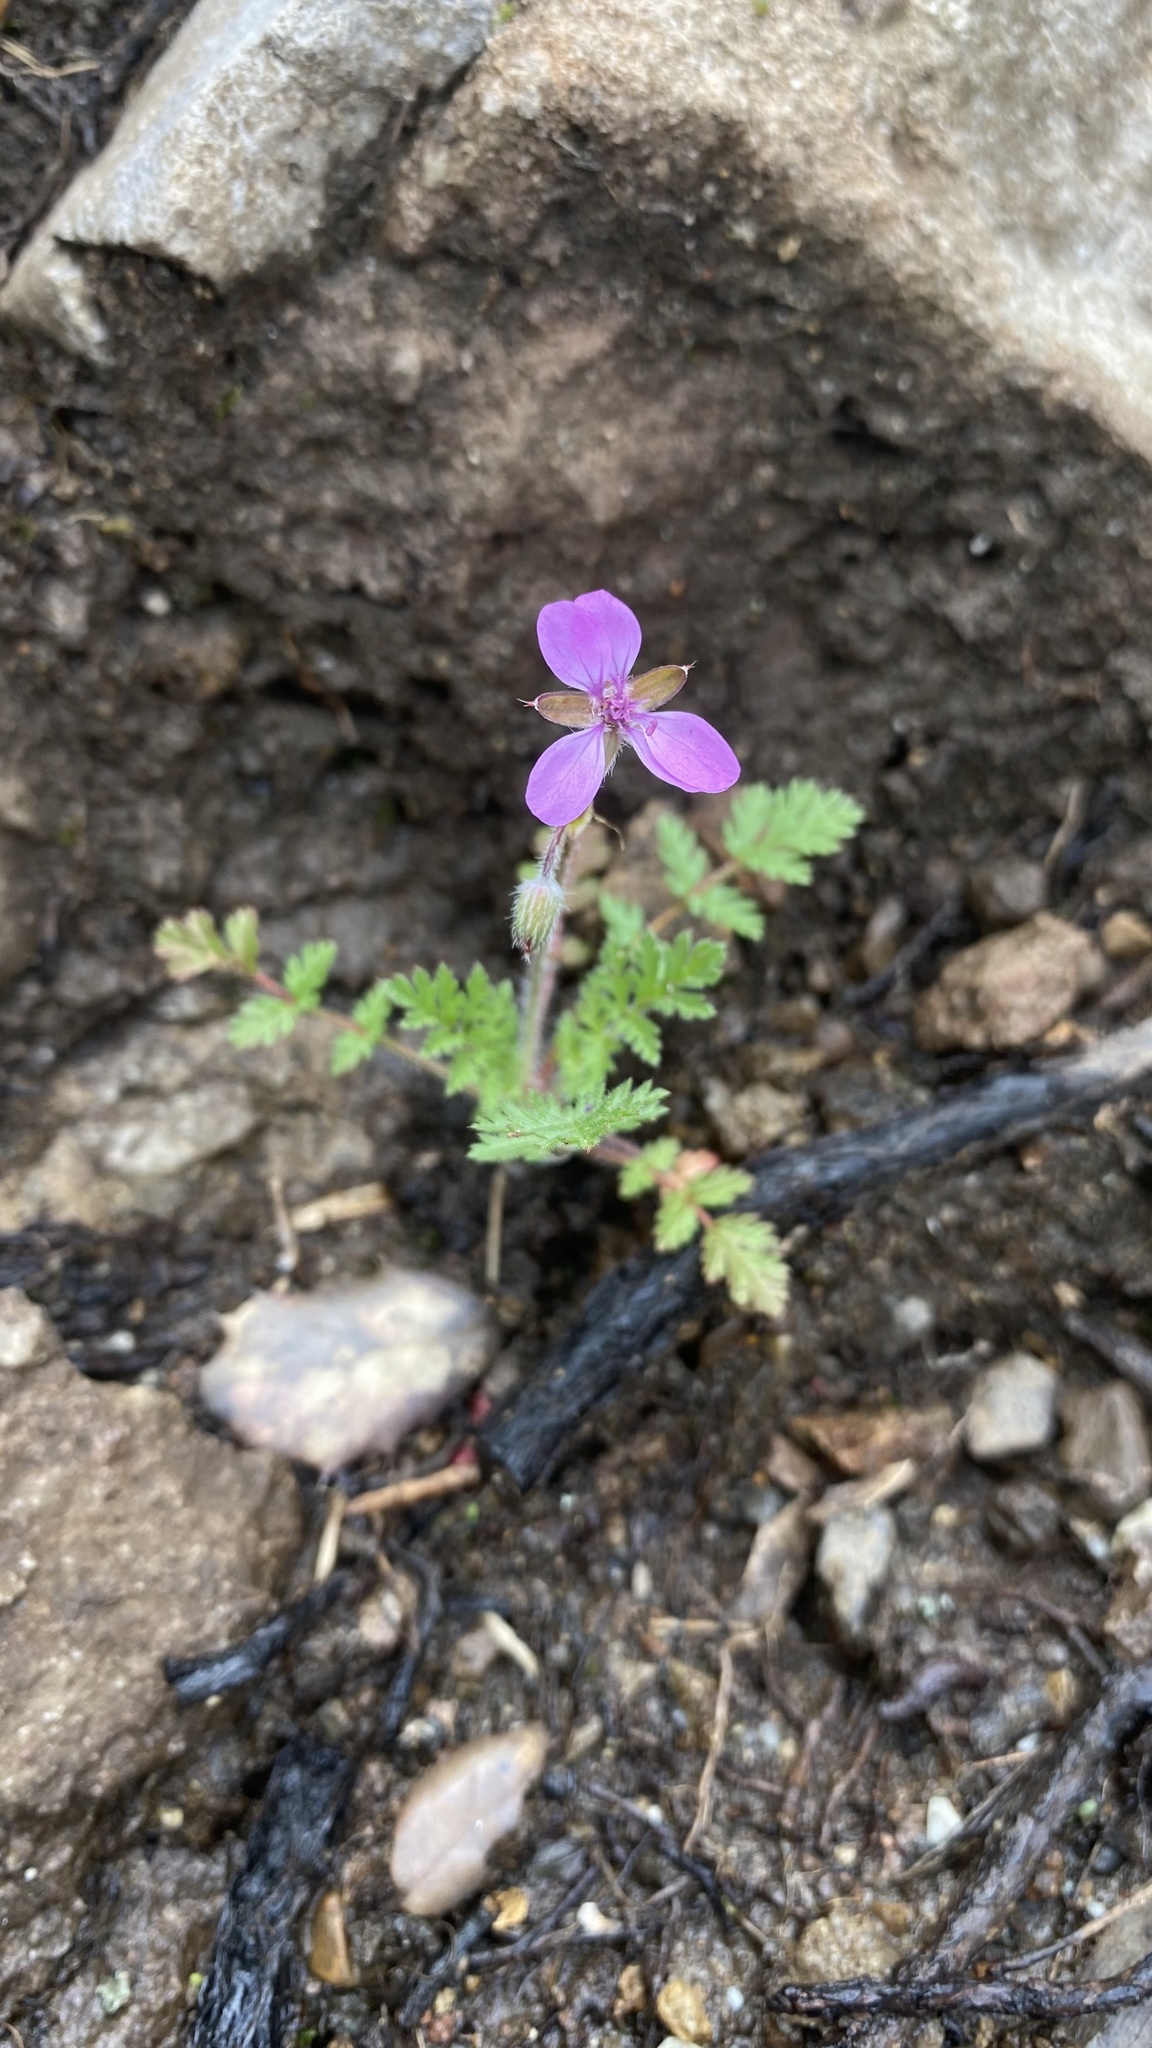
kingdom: Plantae
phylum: Tracheophyta
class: Magnoliopsida
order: Geraniales
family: Geraniaceae
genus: Erodium
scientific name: Erodium cicutarium
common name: Common stork's-bill
